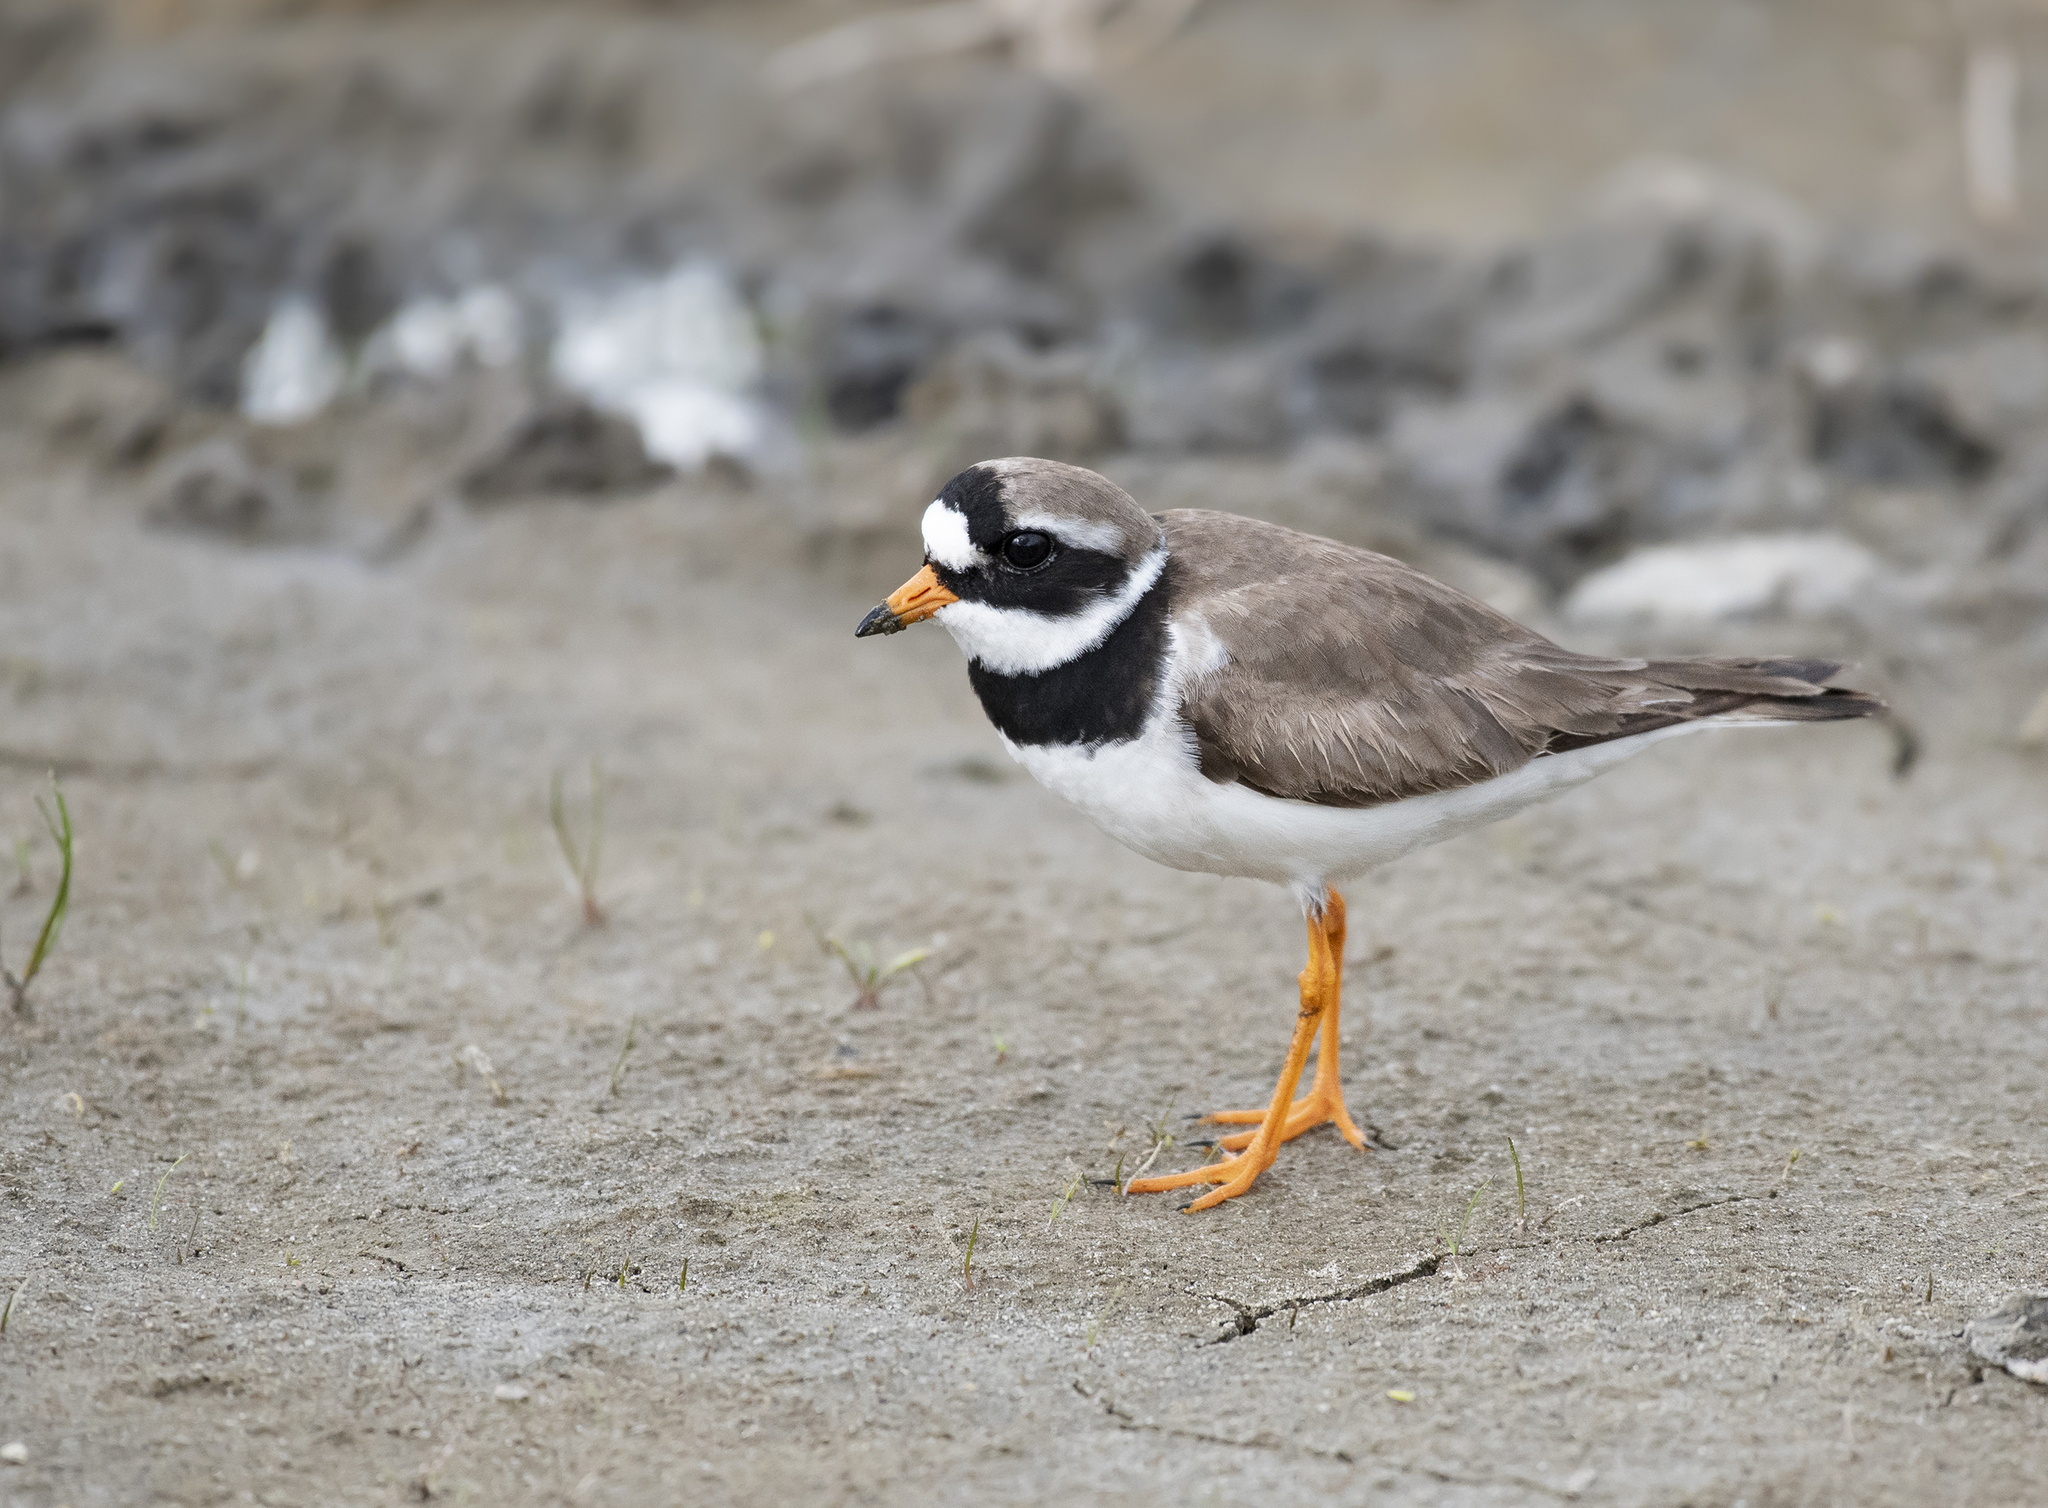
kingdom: Animalia
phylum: Chordata
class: Aves
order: Charadriiformes
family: Charadriidae
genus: Charadrius
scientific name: Charadrius hiaticula
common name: Common ringed plover
